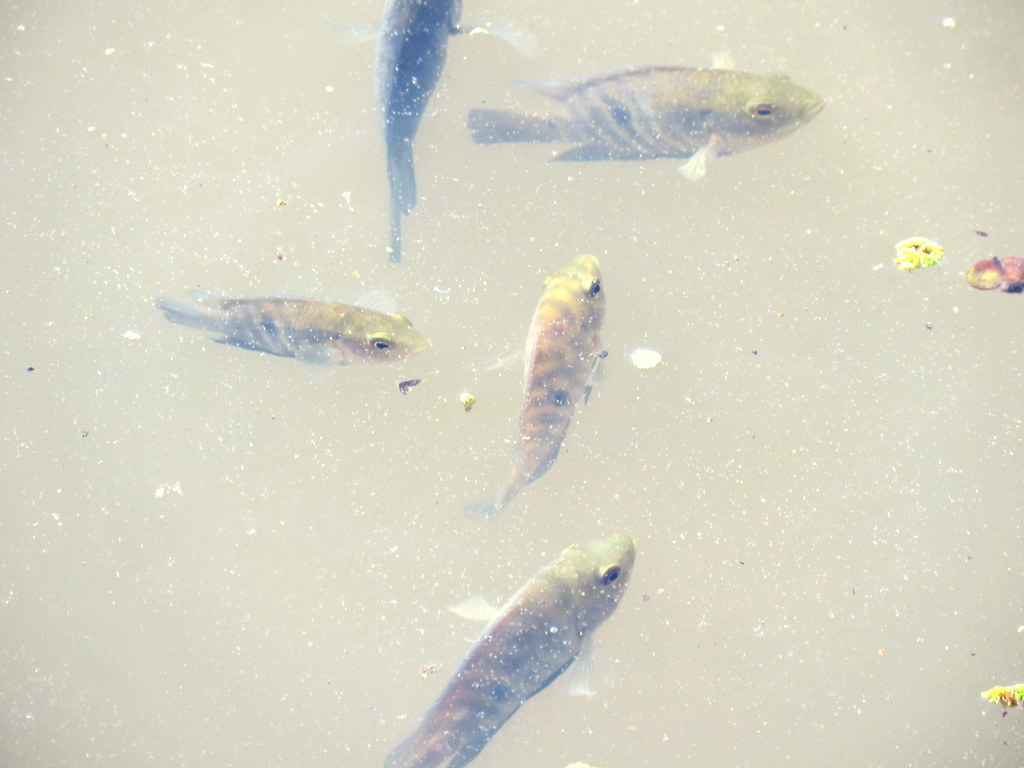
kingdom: Animalia
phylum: Chordata
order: Perciformes
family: Cichlidae
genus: Australoheros
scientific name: Australoheros facetus
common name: Chameleon cichlid
